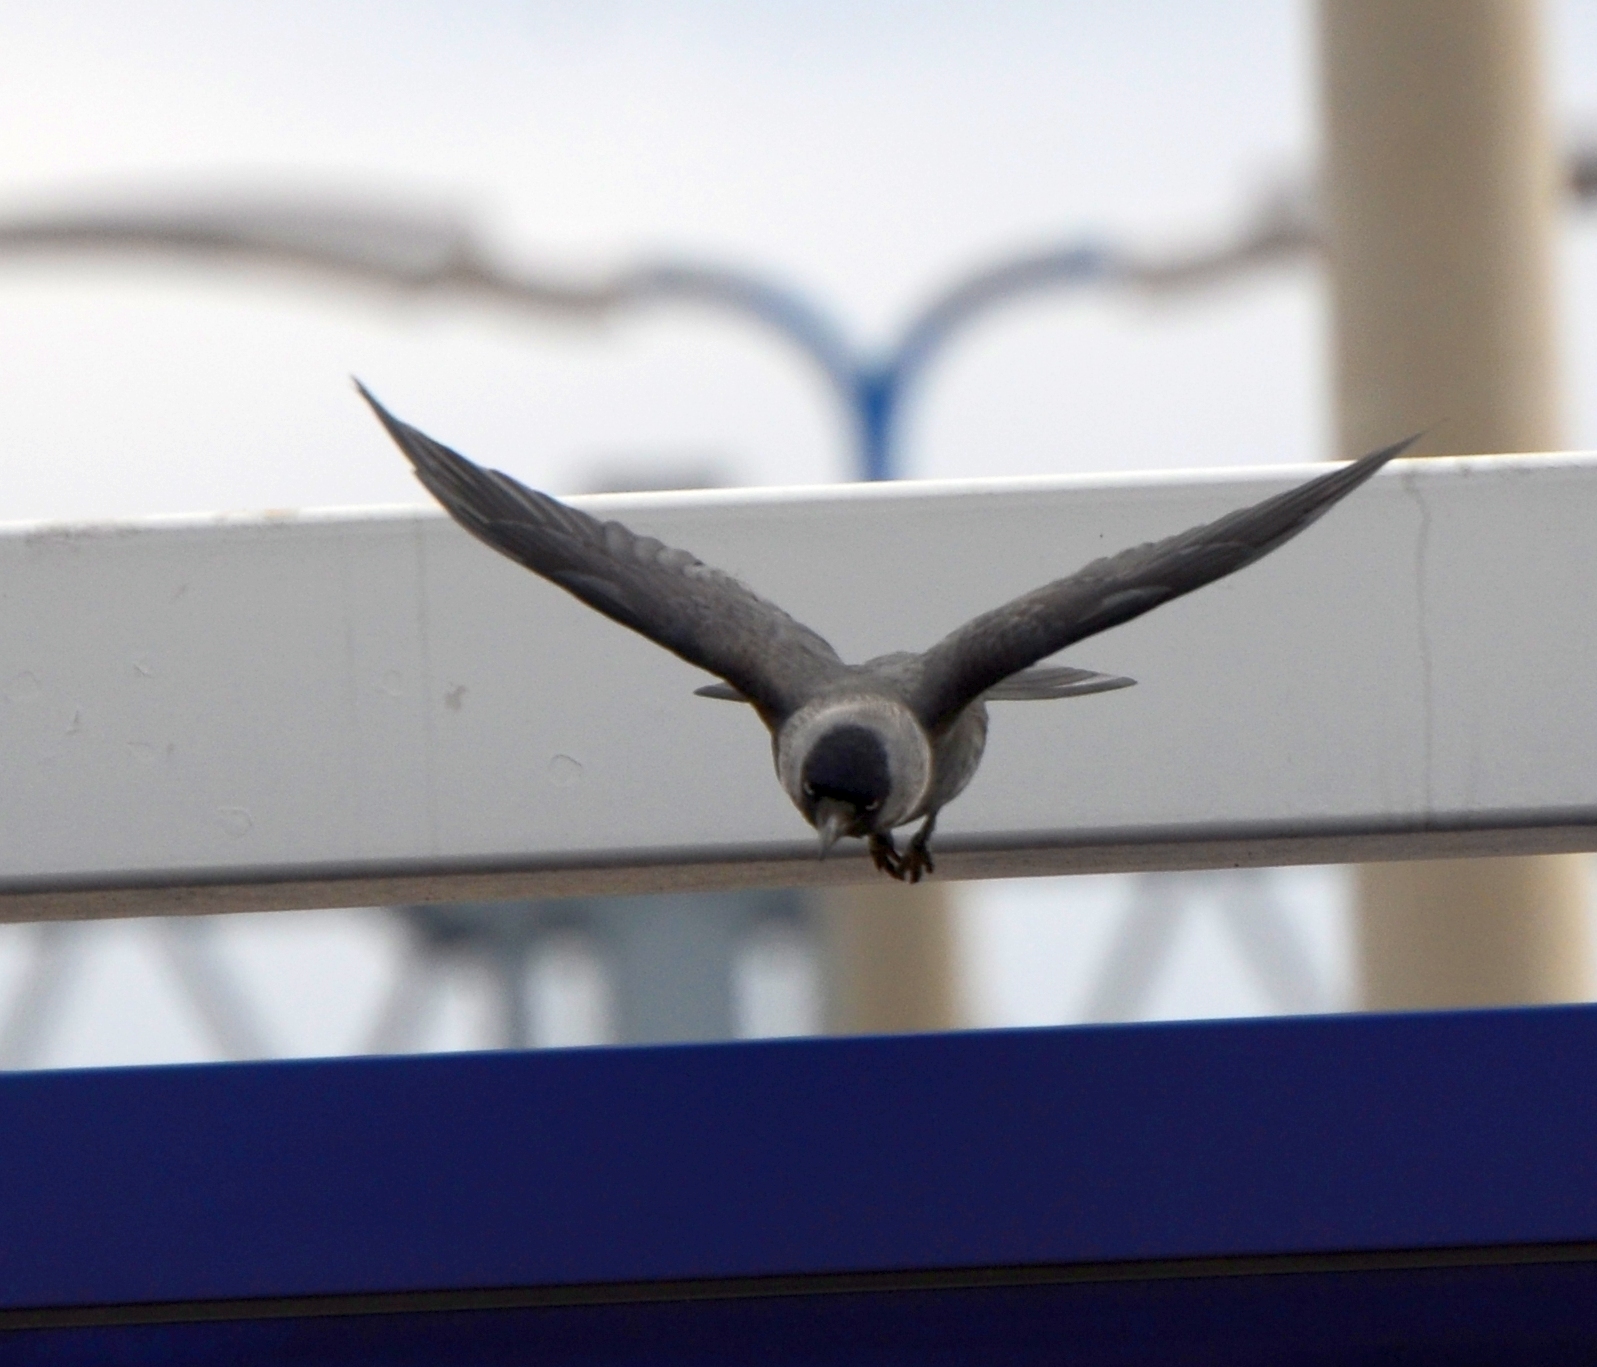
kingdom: Animalia
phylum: Chordata
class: Aves
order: Passeriformes
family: Corvidae
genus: Coloeus
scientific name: Coloeus monedula
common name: Western jackdaw
